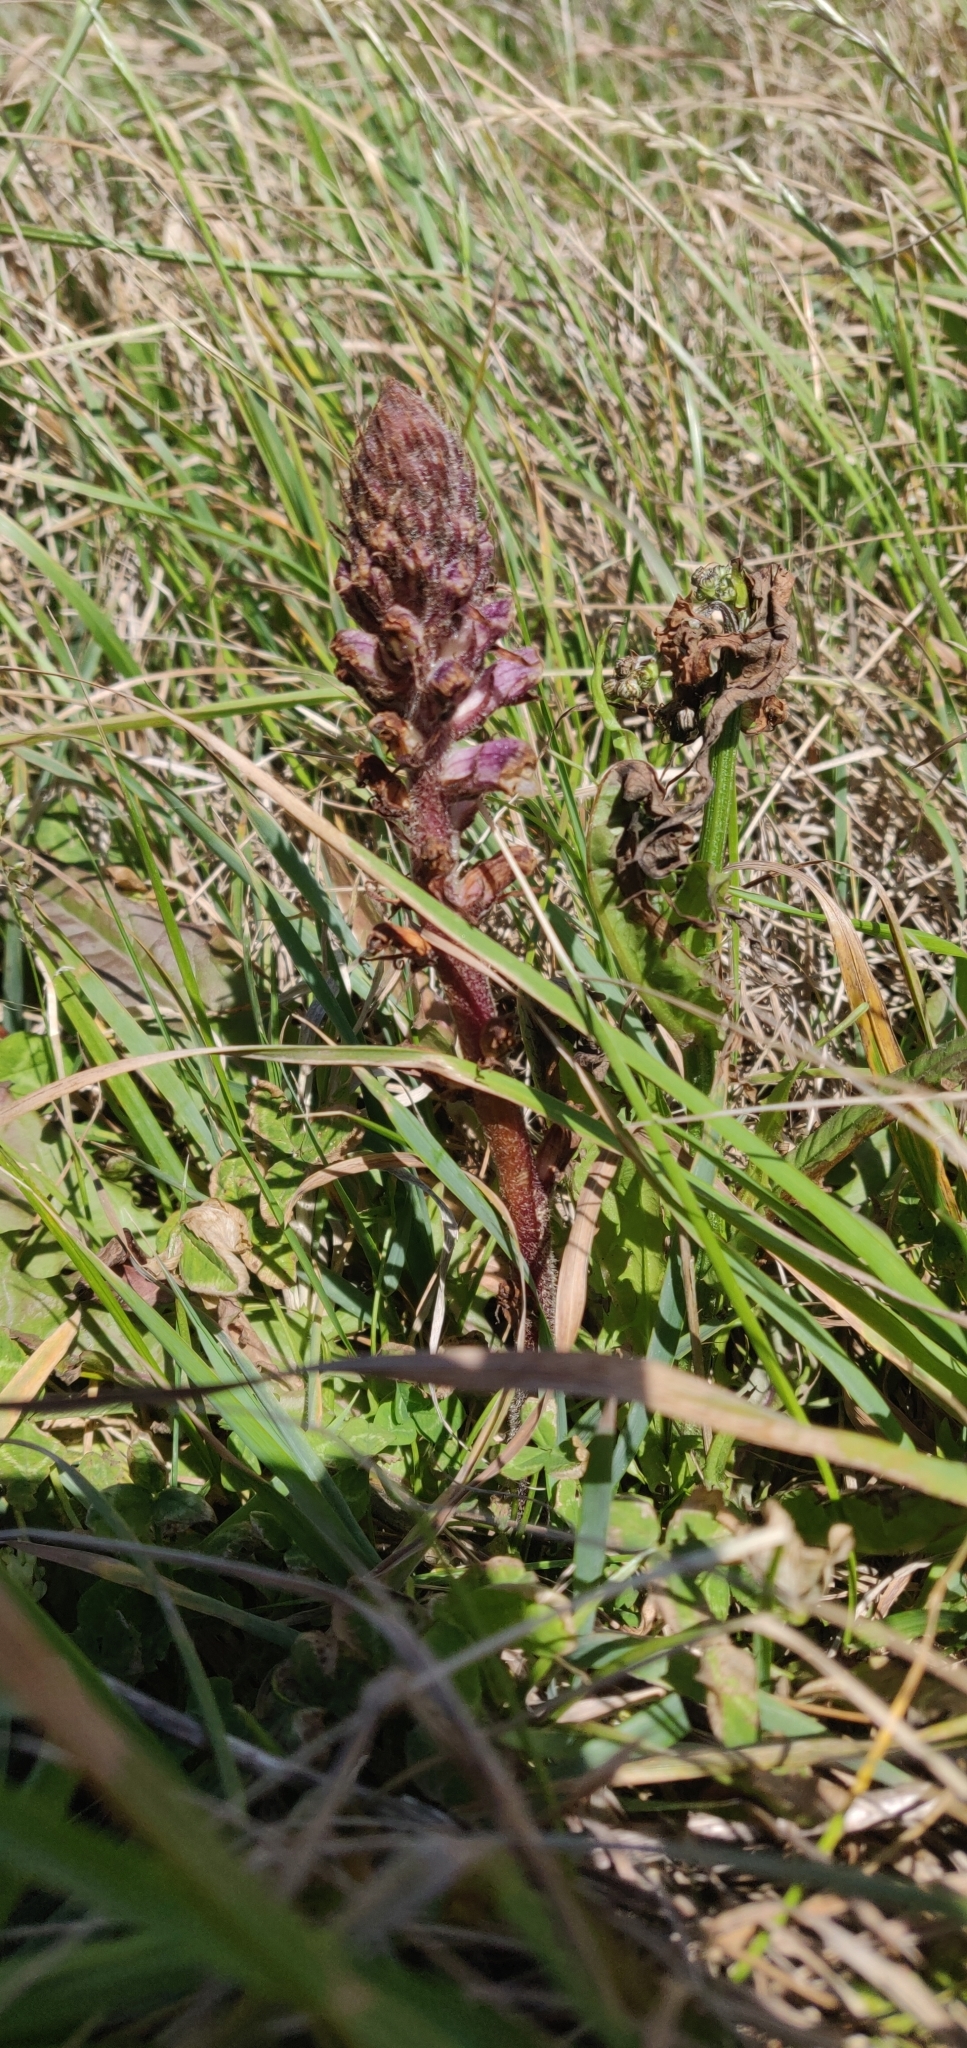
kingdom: Plantae
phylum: Tracheophyta
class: Magnoliopsida
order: Lamiales
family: Orobanchaceae
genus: Orobanche
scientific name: Orobanche minor
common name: Common broomrape
